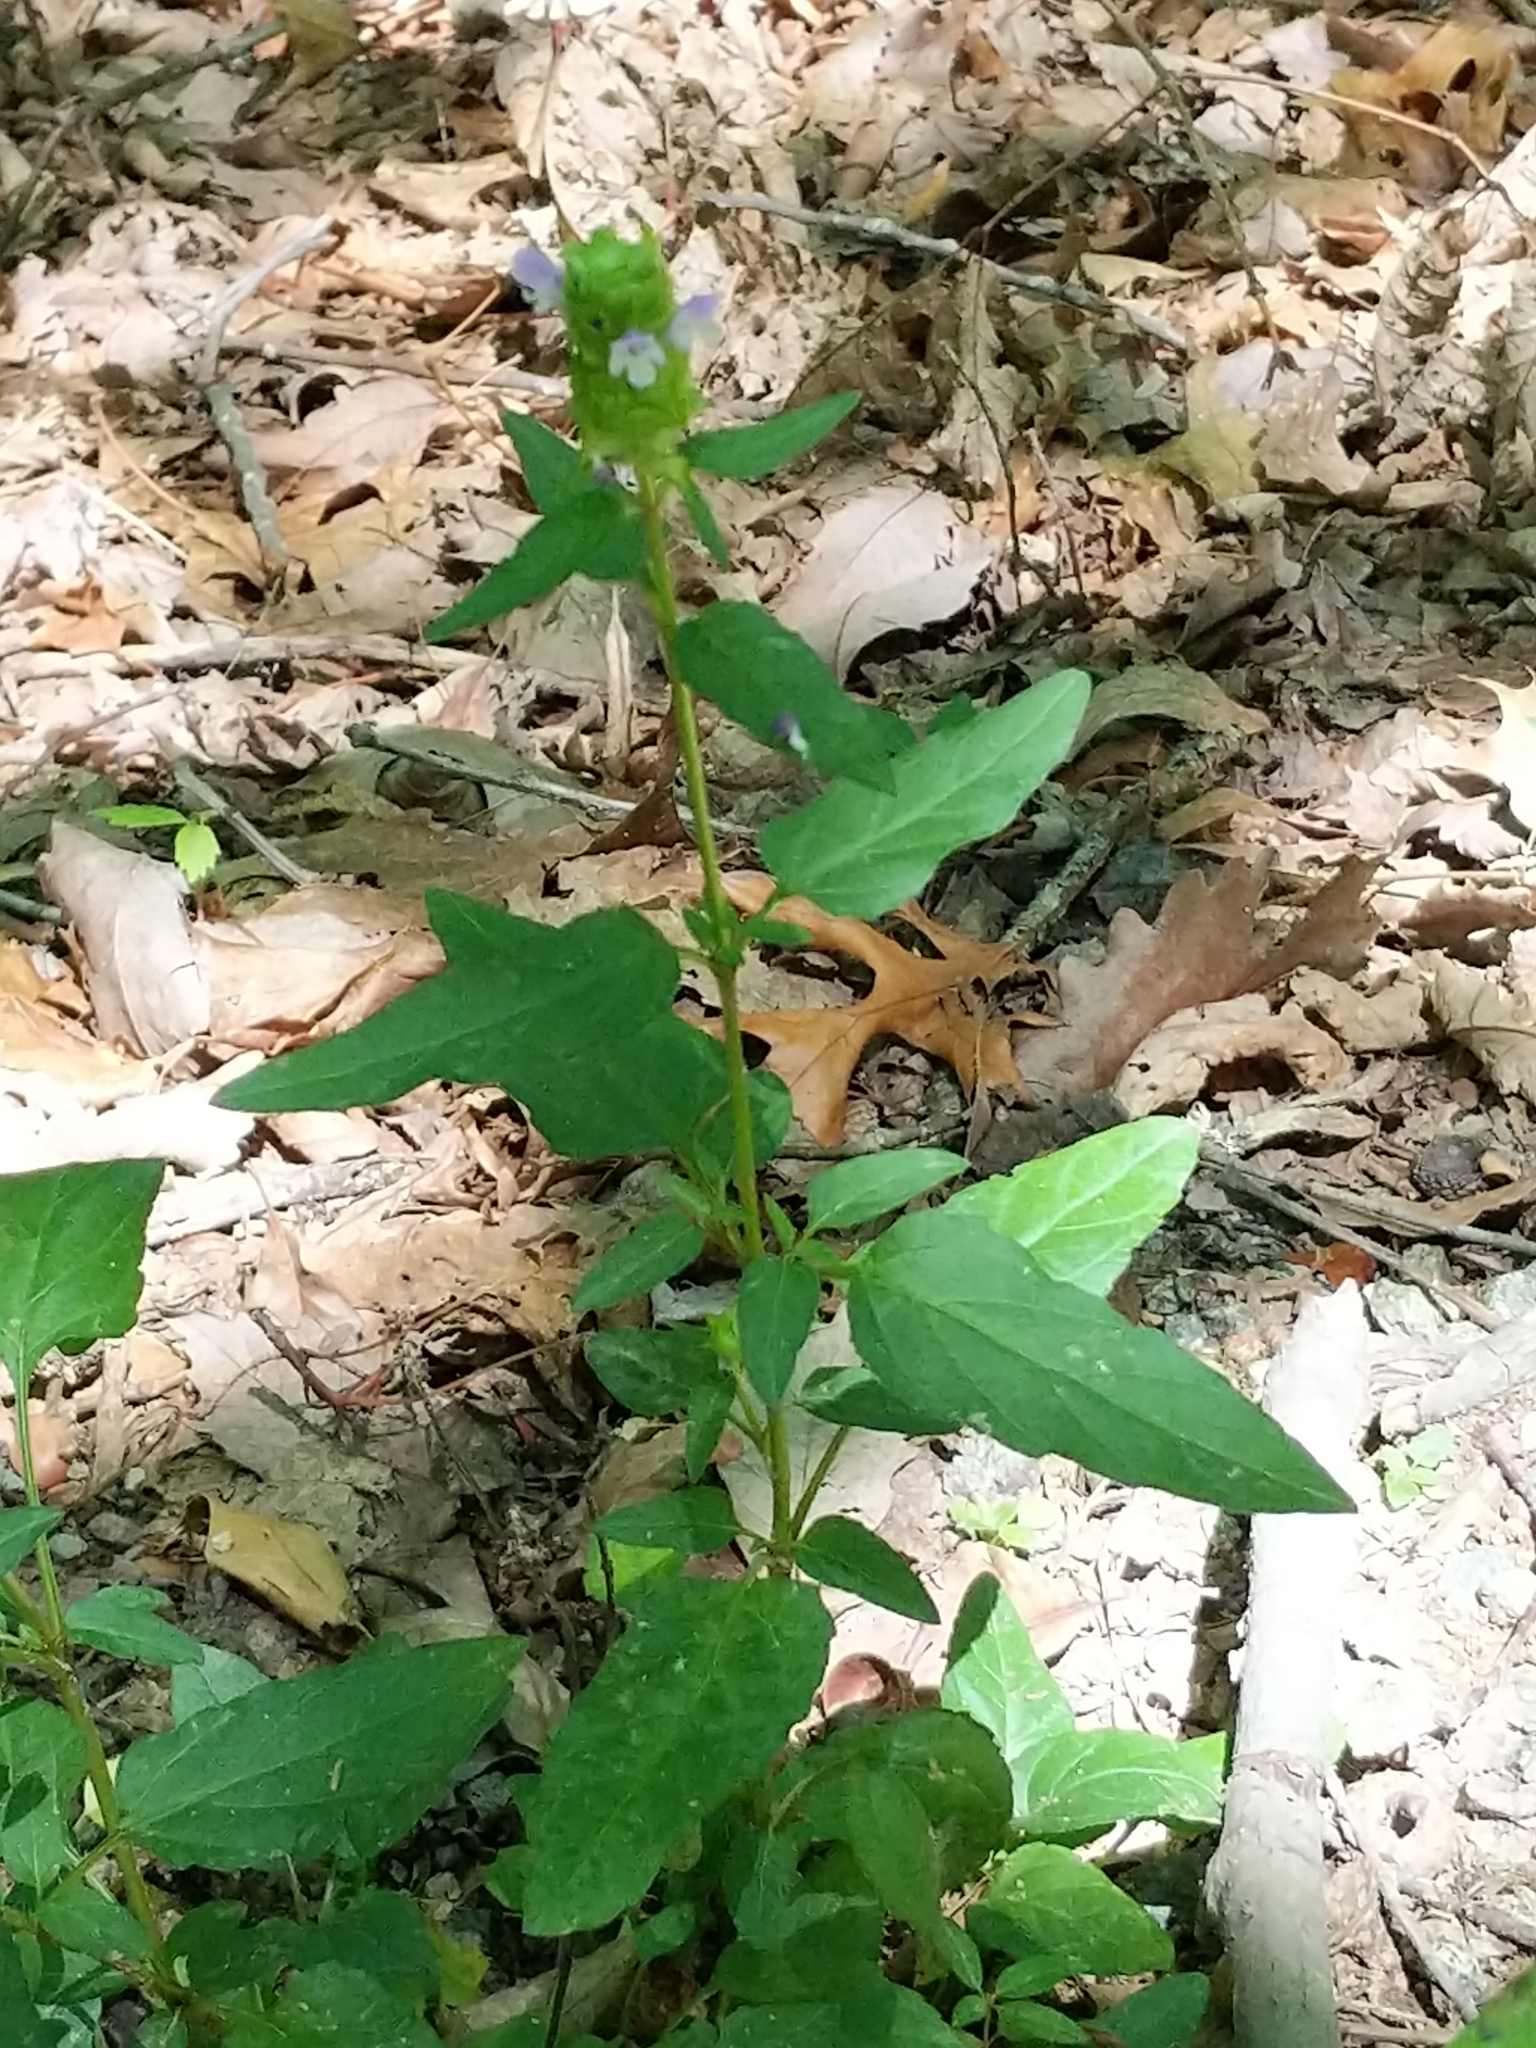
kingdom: Plantae
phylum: Tracheophyta
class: Magnoliopsida
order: Lamiales
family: Lamiaceae
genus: Prunella
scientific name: Prunella vulgaris
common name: Heal-all
